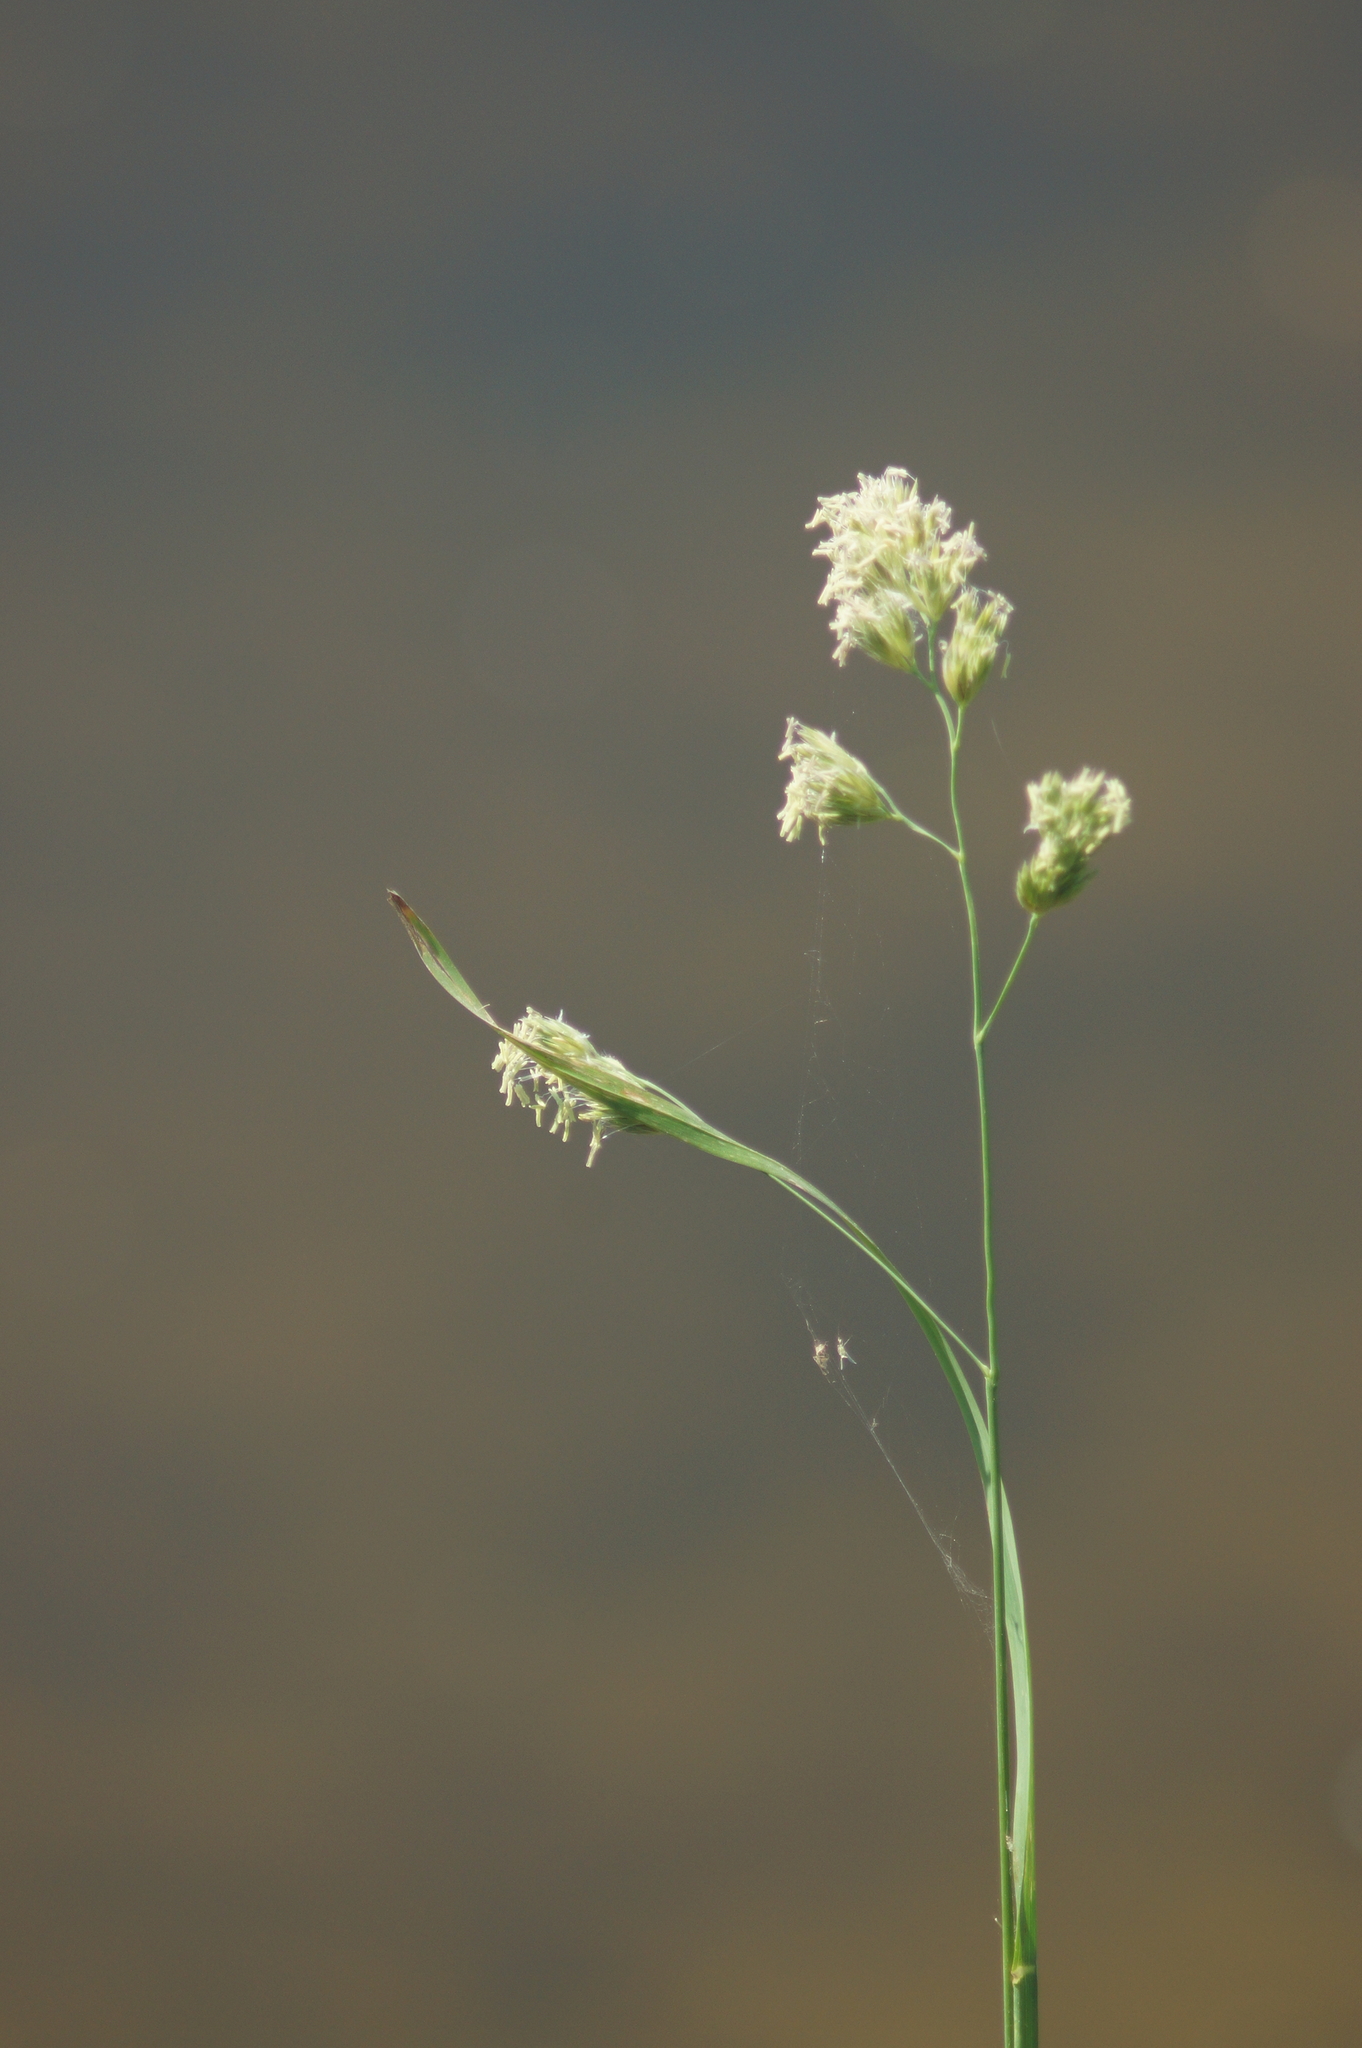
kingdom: Plantae
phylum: Tracheophyta
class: Liliopsida
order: Poales
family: Poaceae
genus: Dactylis
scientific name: Dactylis glomerata
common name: Orchardgrass
